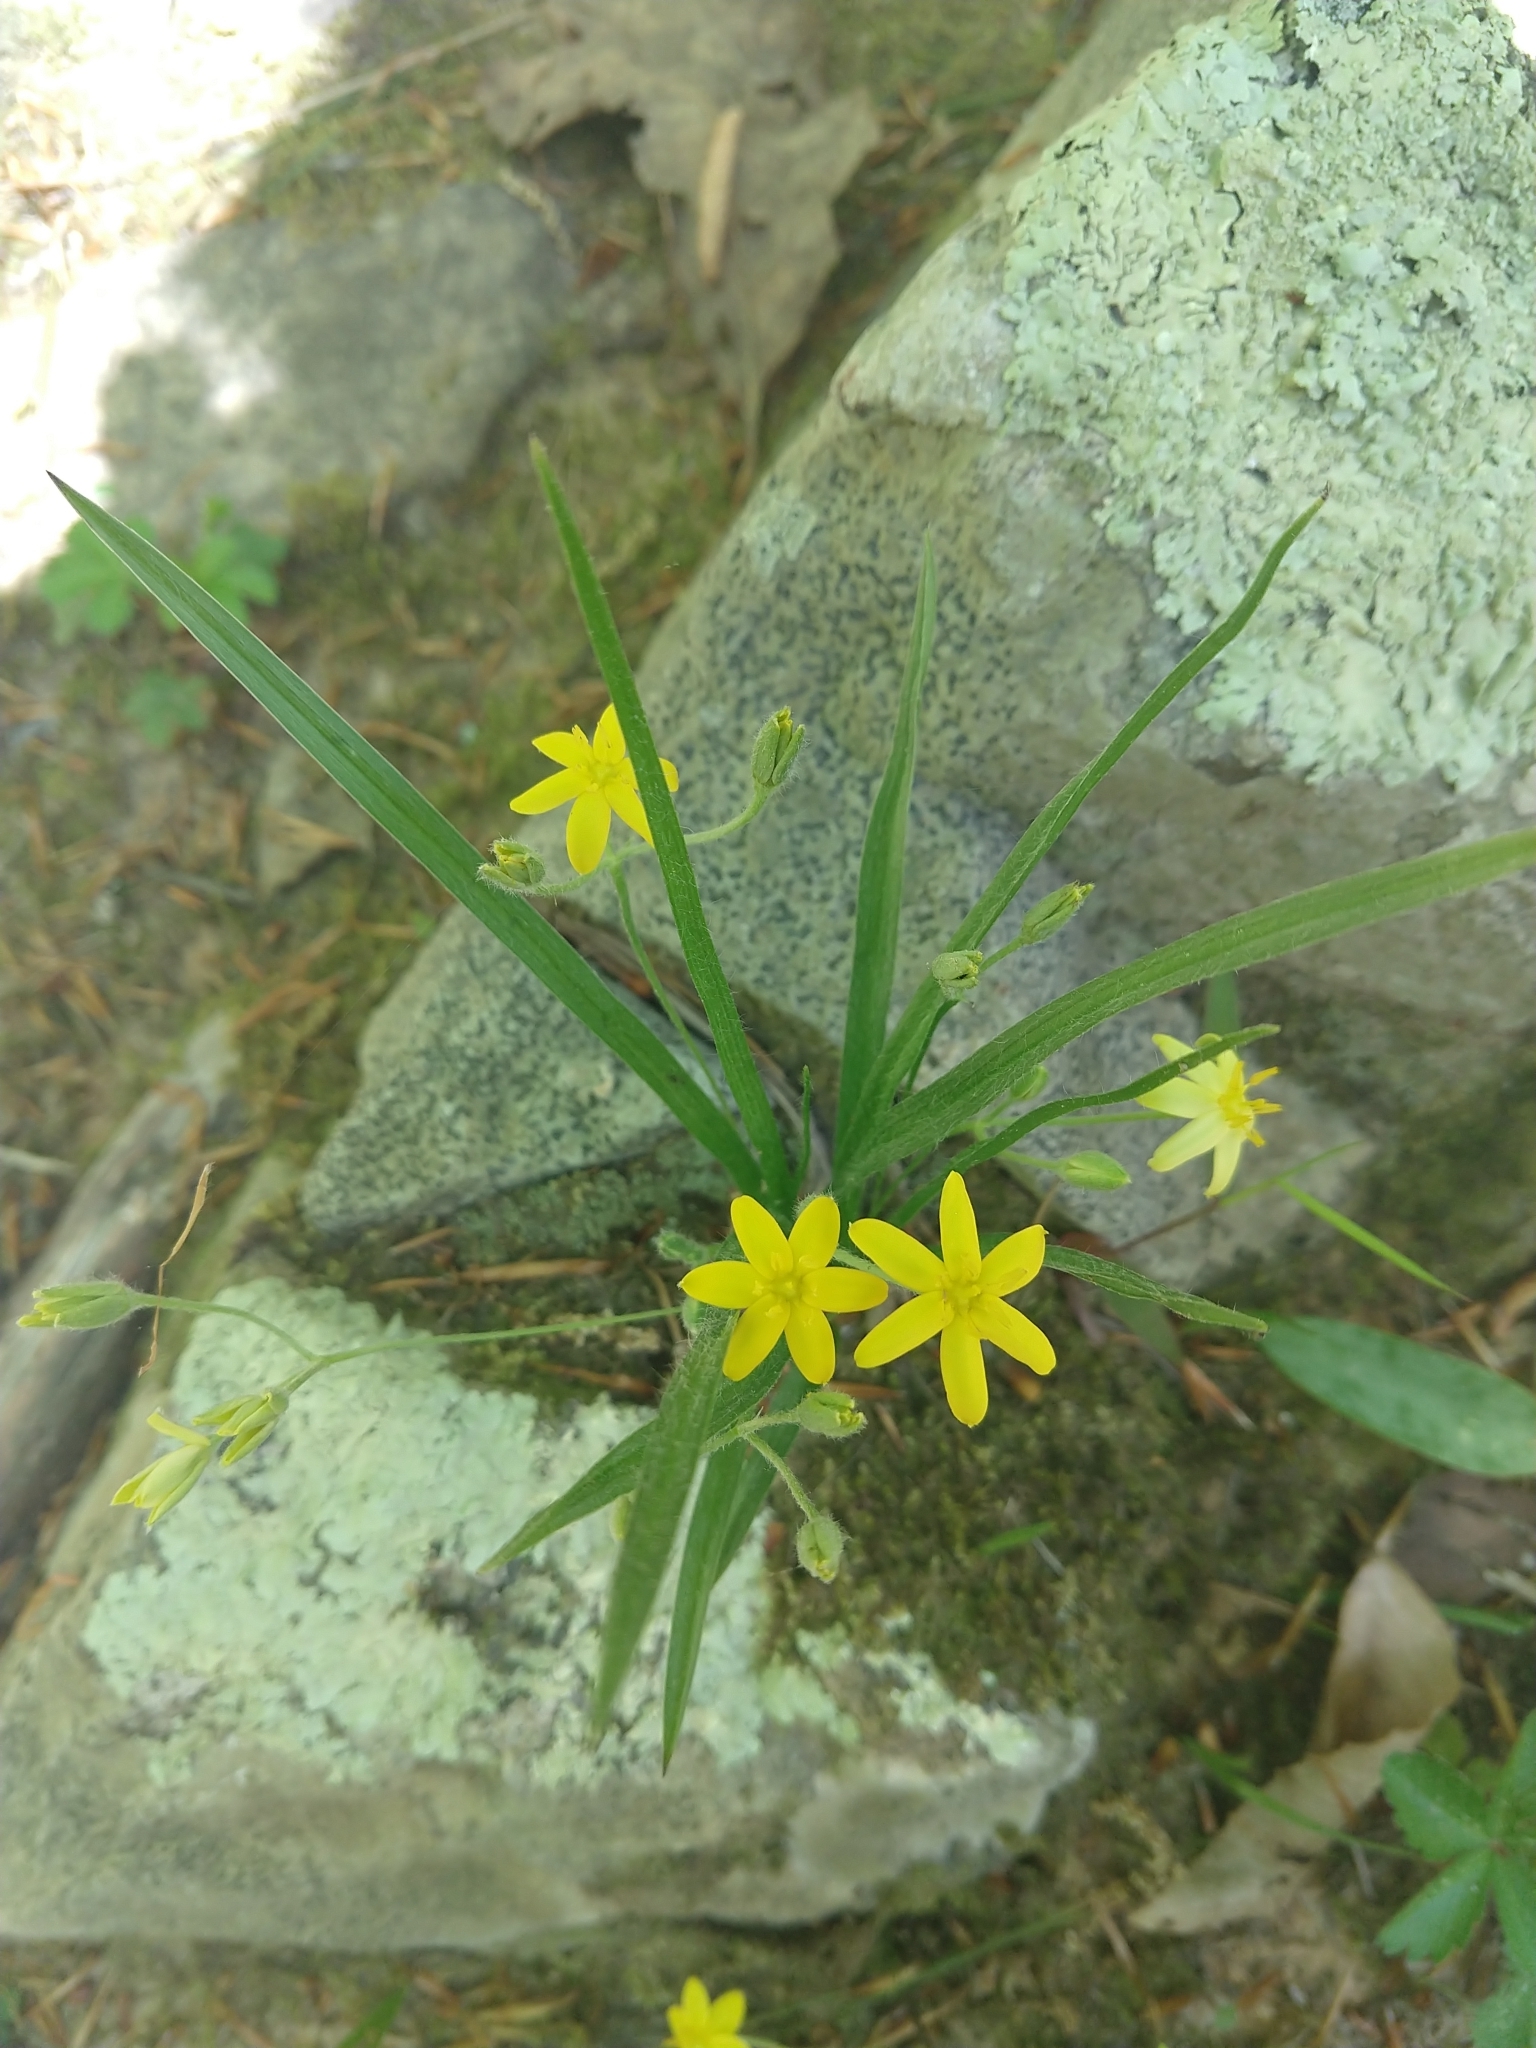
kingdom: Plantae
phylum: Tracheophyta
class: Liliopsida
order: Asparagales
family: Hypoxidaceae
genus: Hypoxis
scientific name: Hypoxis hirsuta
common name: Common goldstar
